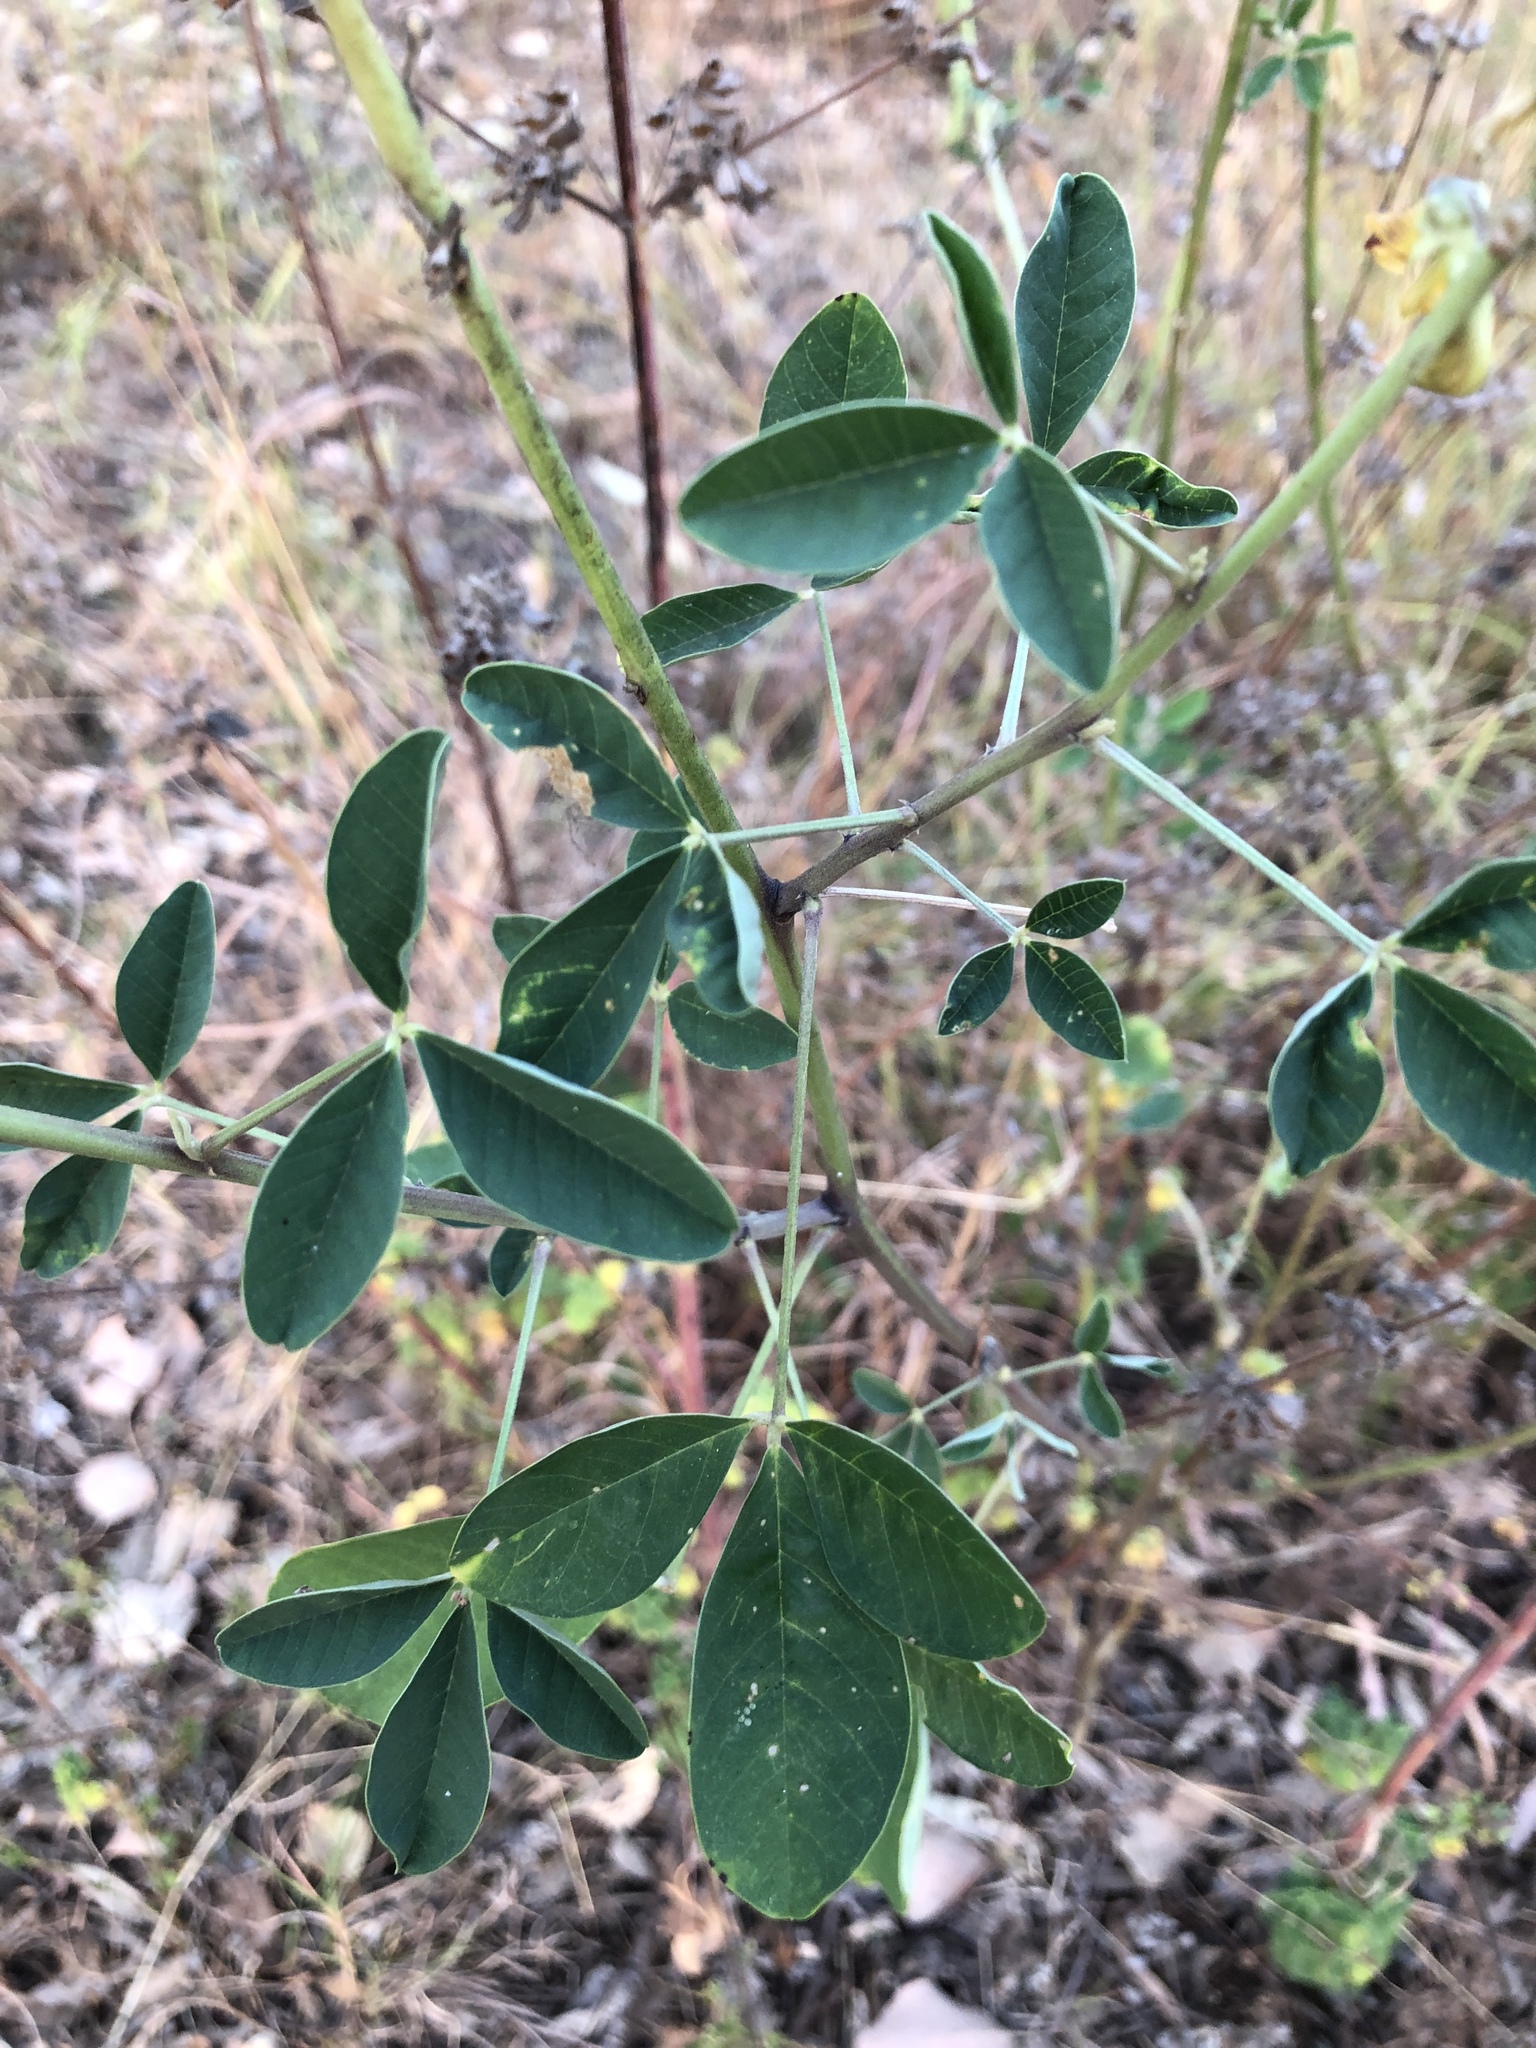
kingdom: Plantae
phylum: Tracheophyta
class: Magnoliopsida
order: Fabales
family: Fabaceae
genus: Crotalaria
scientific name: Crotalaria pallida
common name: Smooth rattlebox
